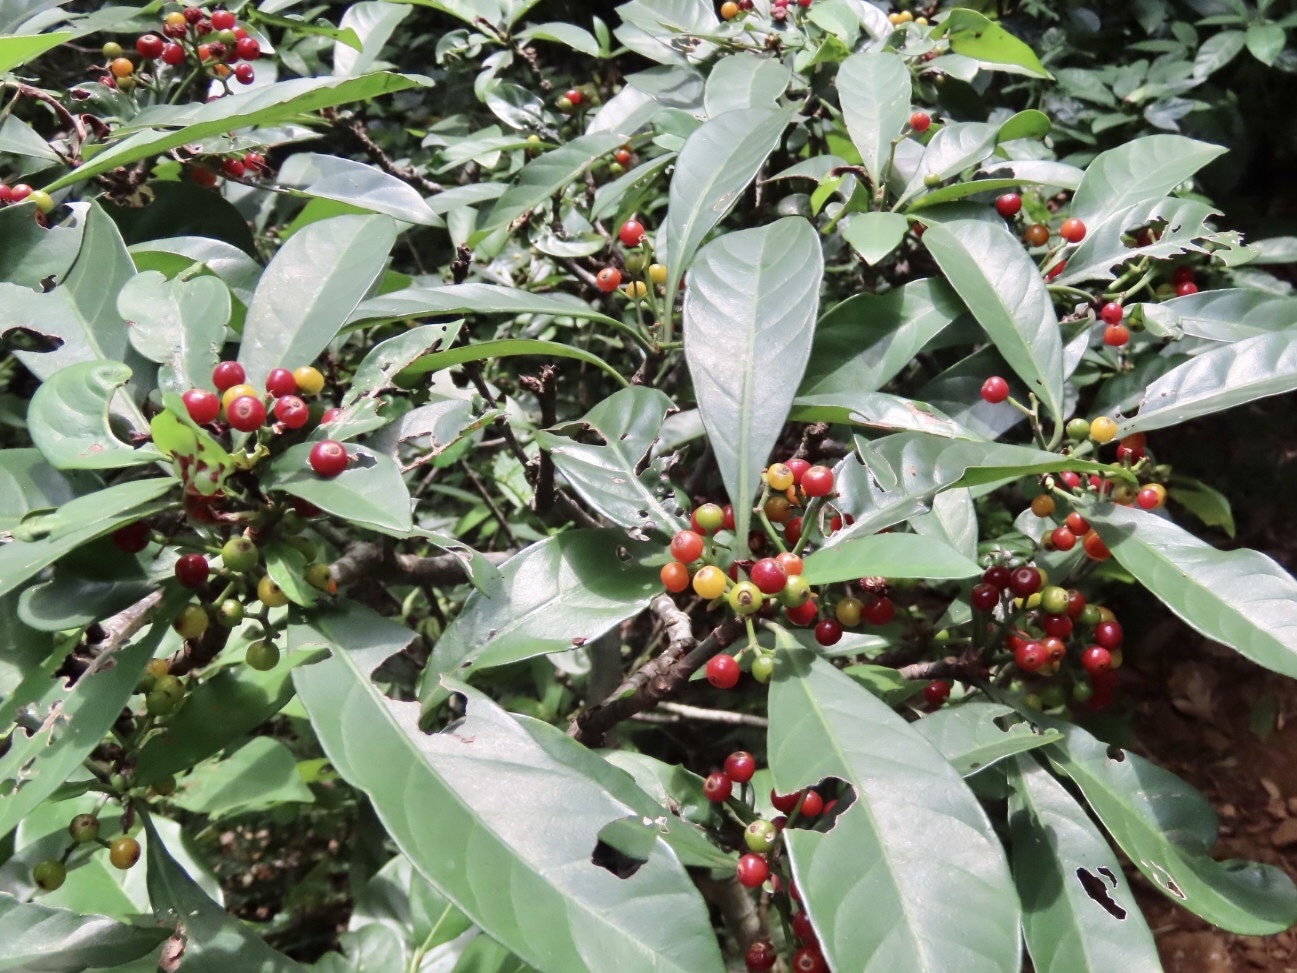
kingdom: Plantae
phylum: Tracheophyta
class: Magnoliopsida
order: Gentianales
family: Rubiaceae
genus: Psychotria
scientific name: Psychotria asiatica
